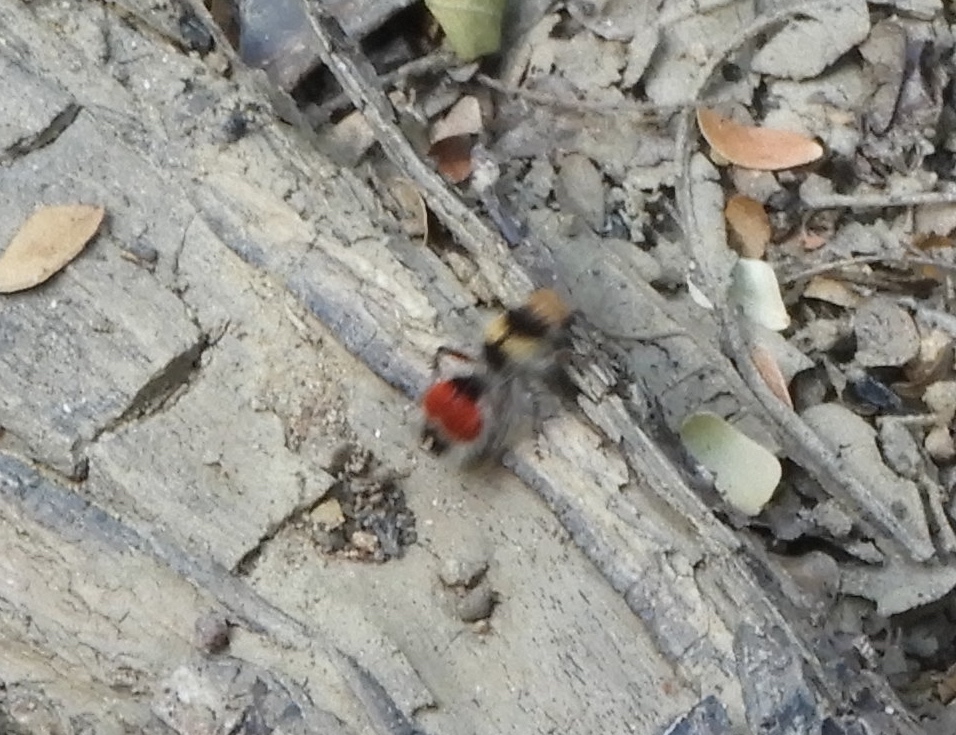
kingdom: Animalia
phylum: Arthropoda
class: Insecta
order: Hymenoptera
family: Mutillidae
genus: Dasymutilla
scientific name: Dasymutilla foxi
